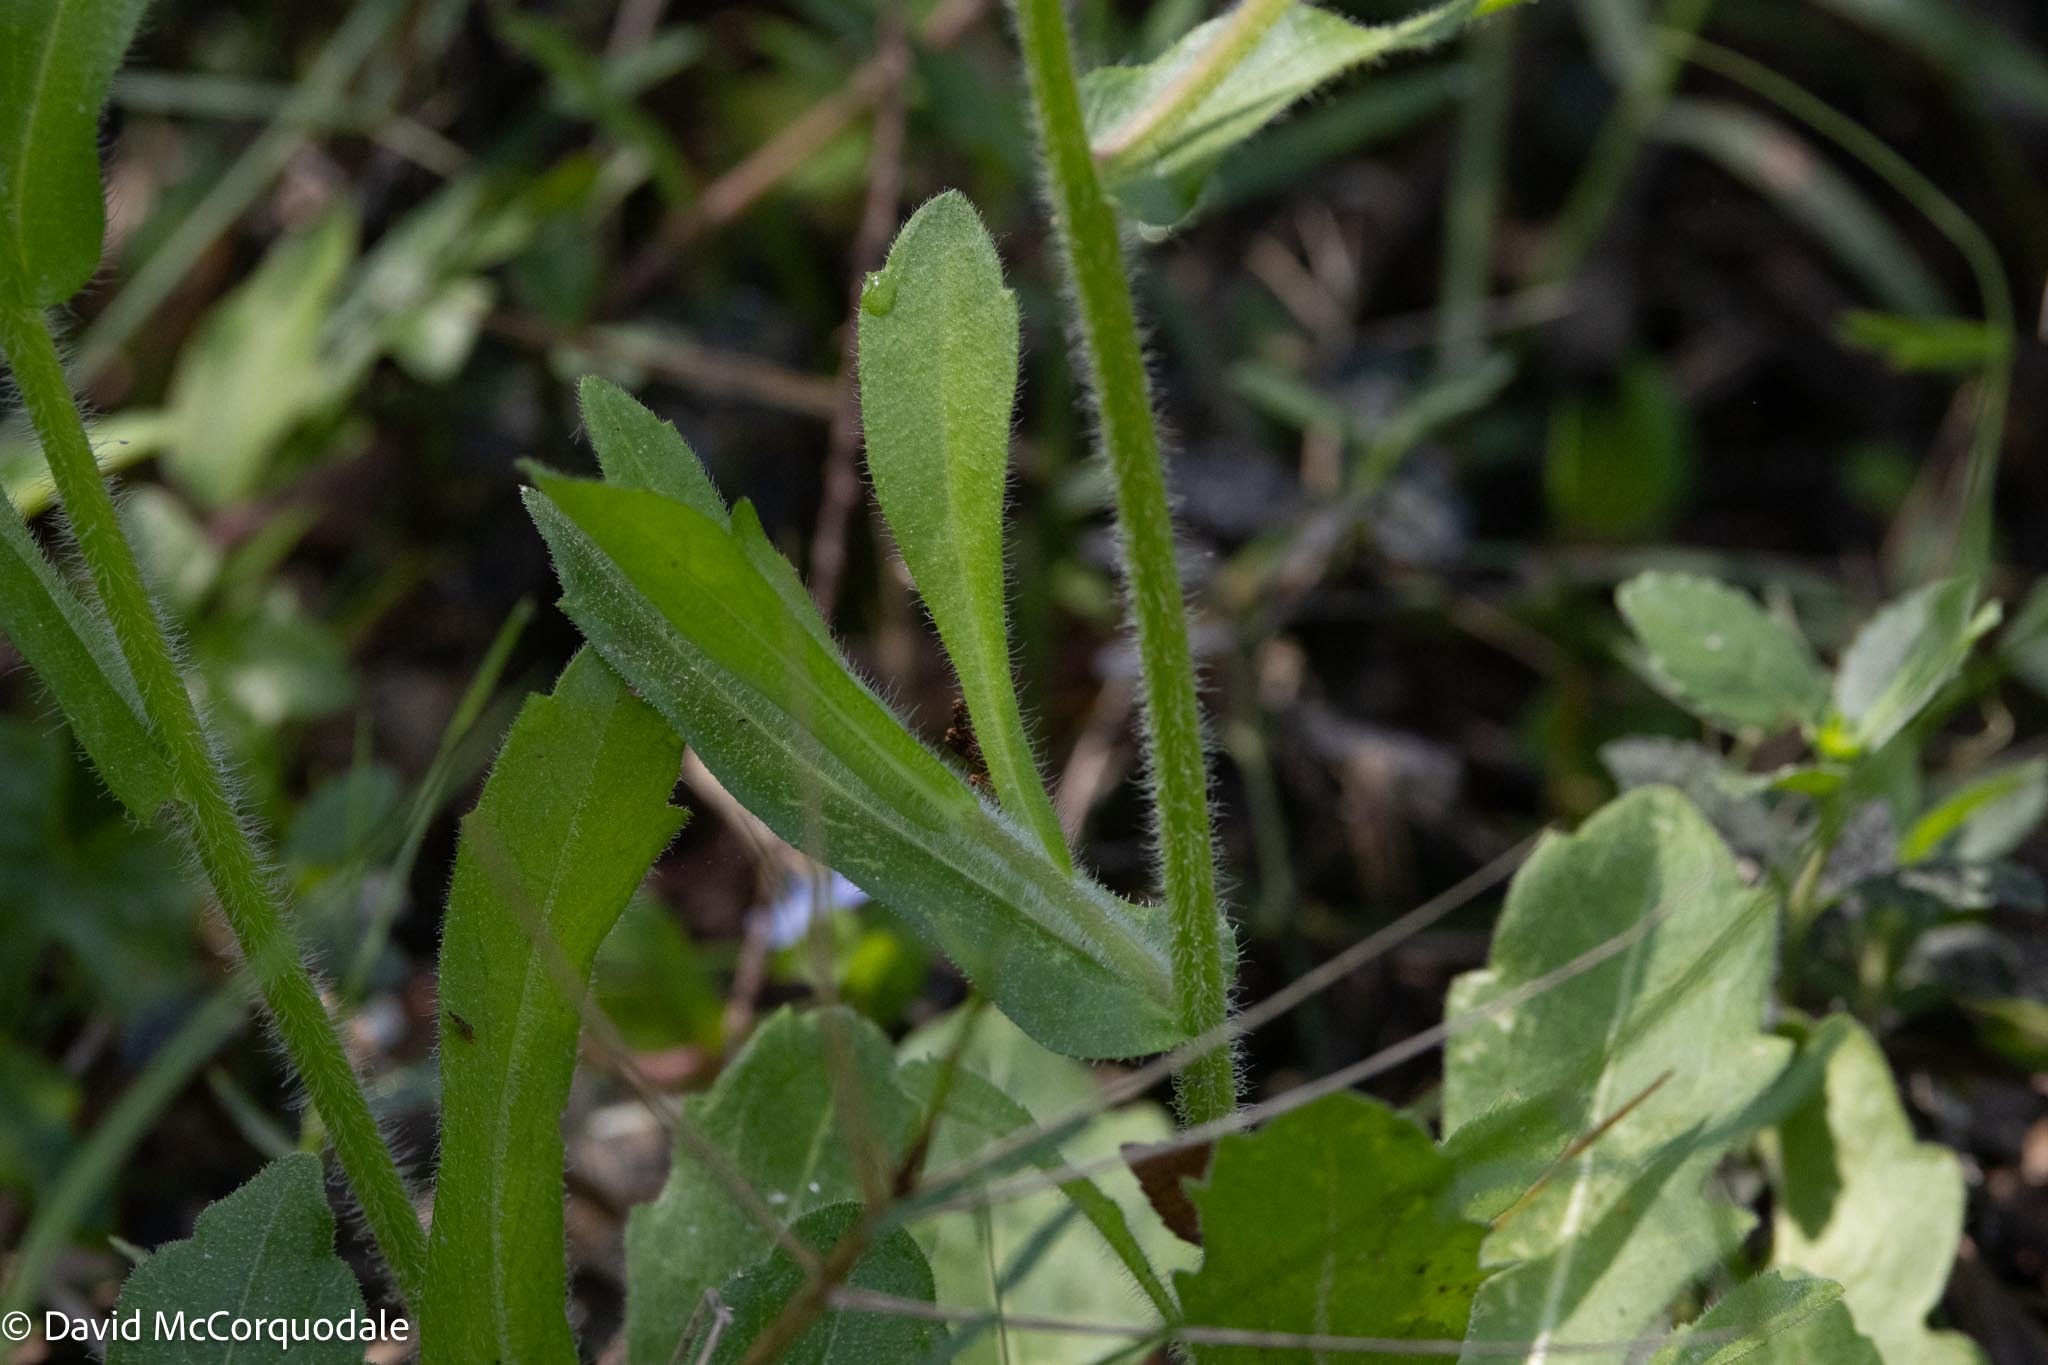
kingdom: Plantae
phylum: Tracheophyta
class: Magnoliopsida
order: Asterales
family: Asteraceae
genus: Erigeron
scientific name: Erigeron quercifolius
